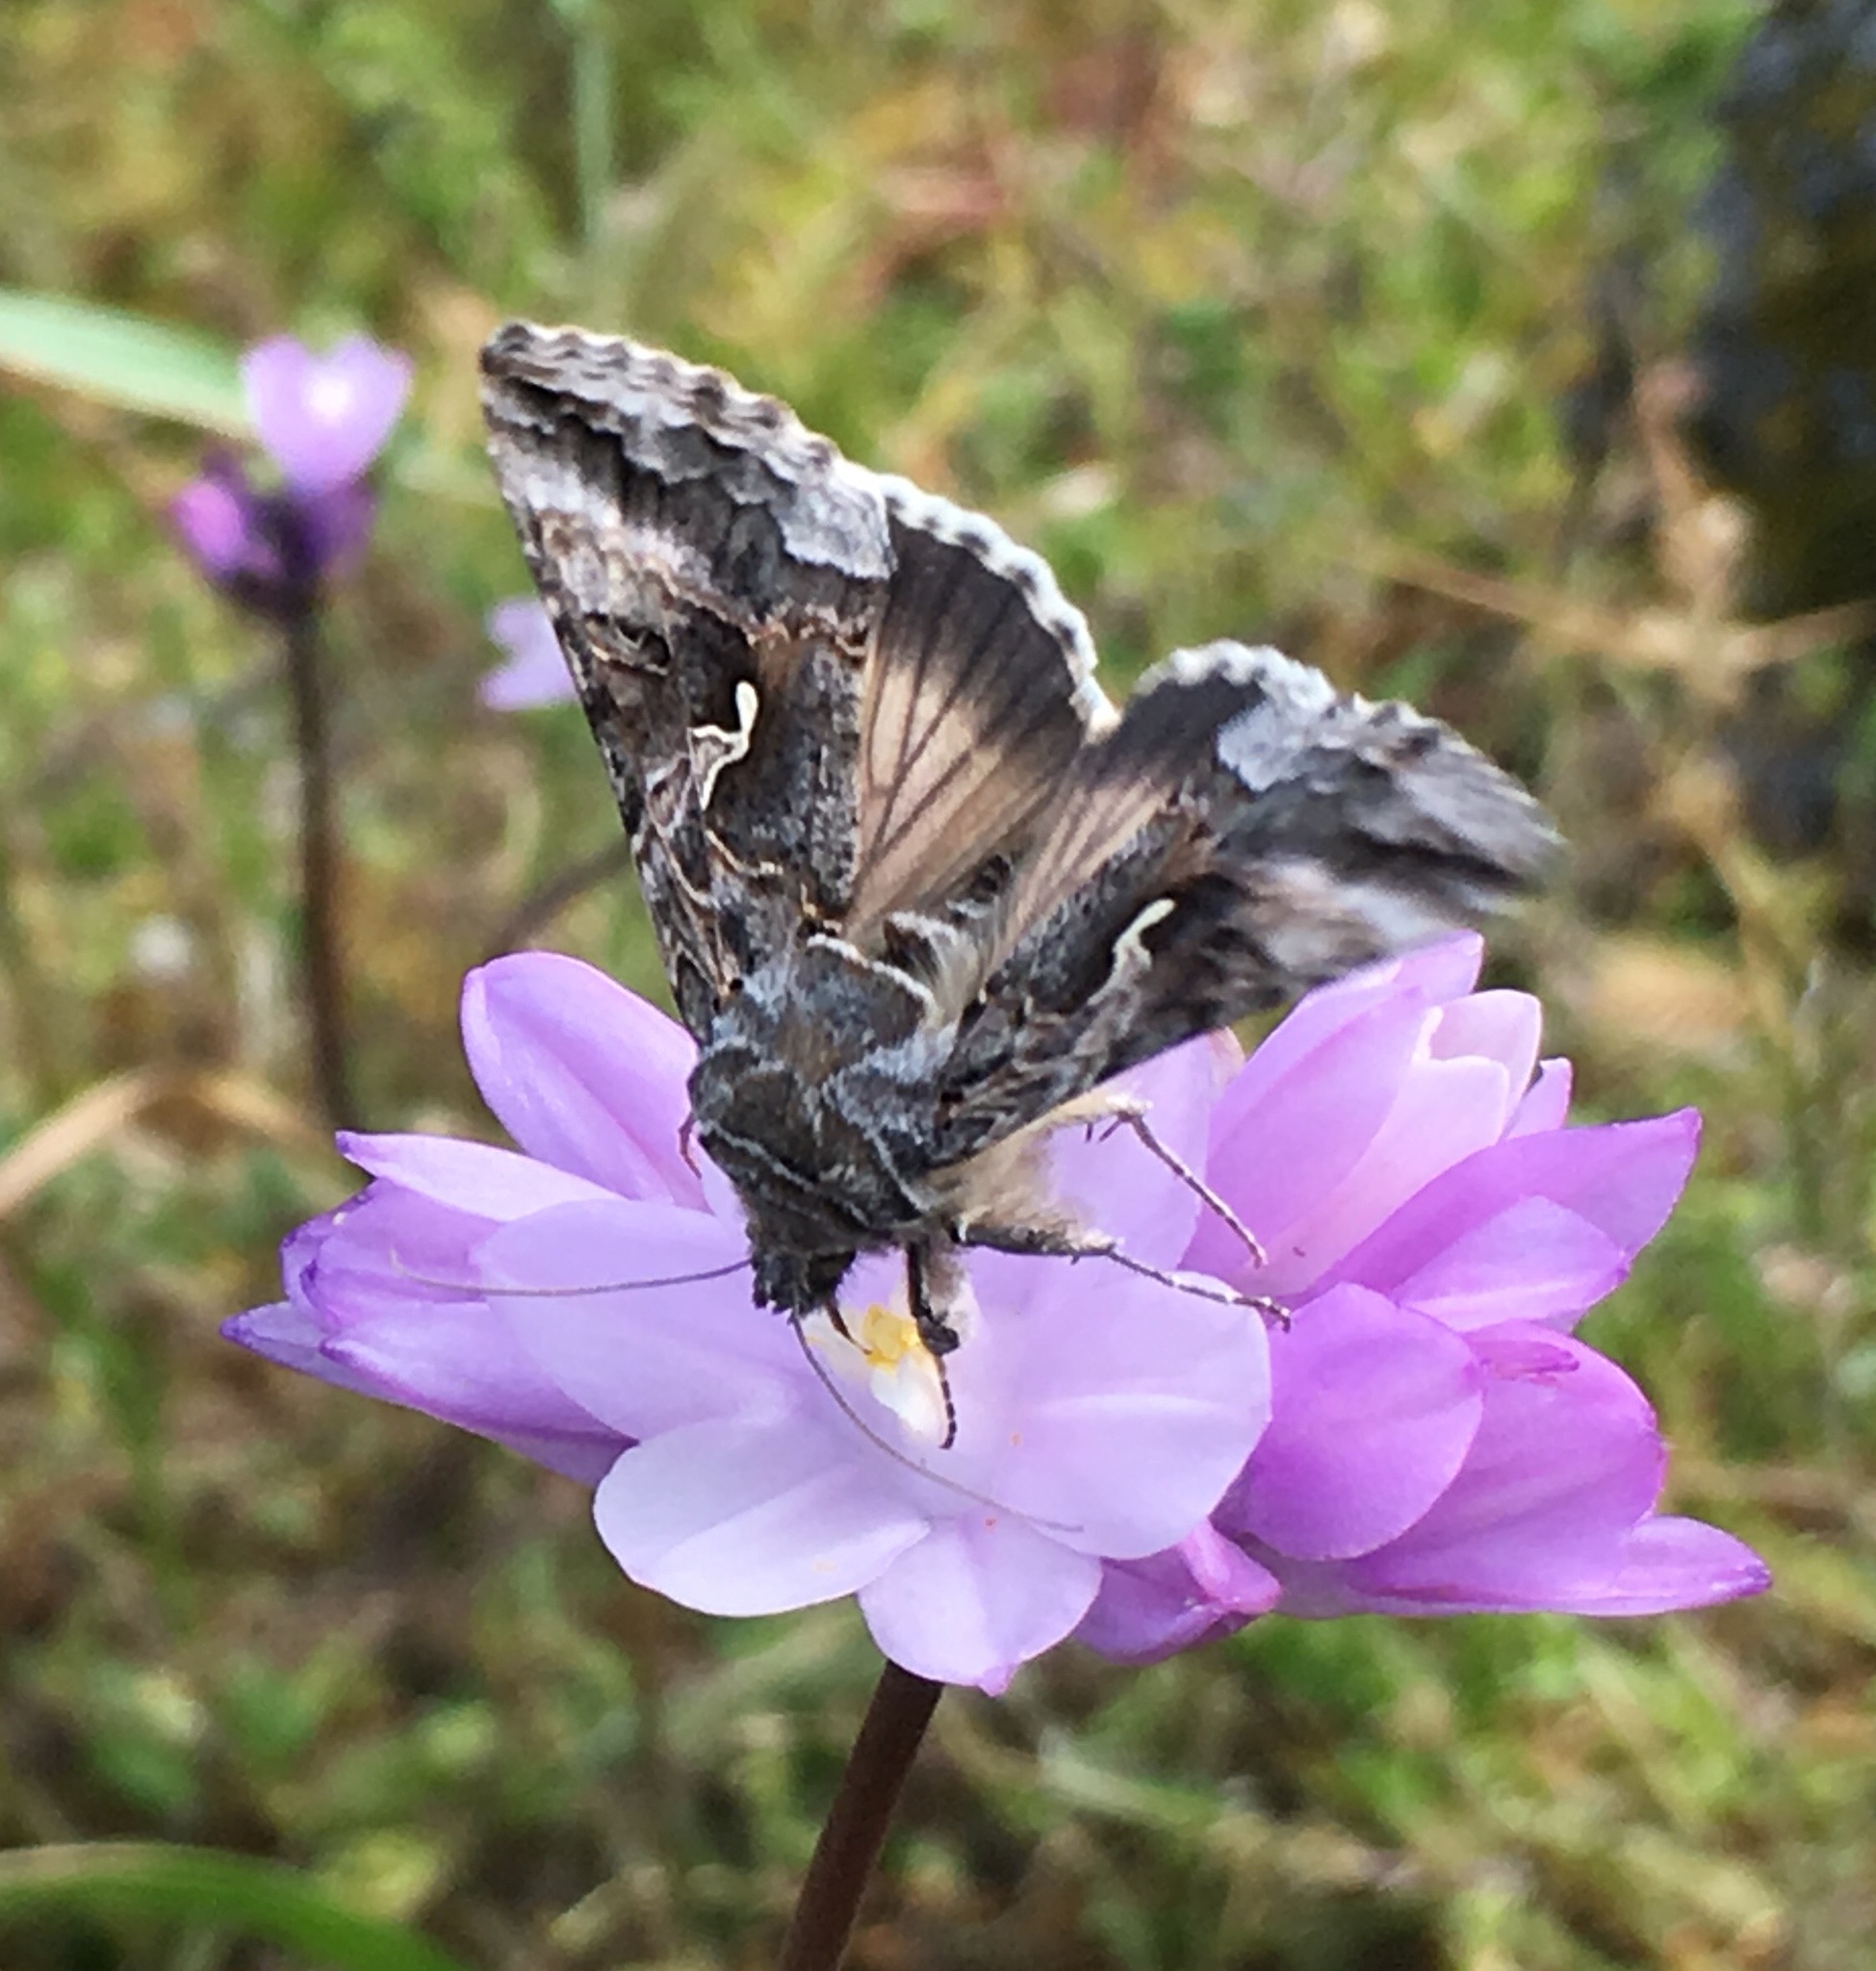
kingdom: Animalia
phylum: Arthropoda
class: Insecta
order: Lepidoptera
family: Noctuidae
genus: Autographa
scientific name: Autographa californica
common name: Alfalfa looper
